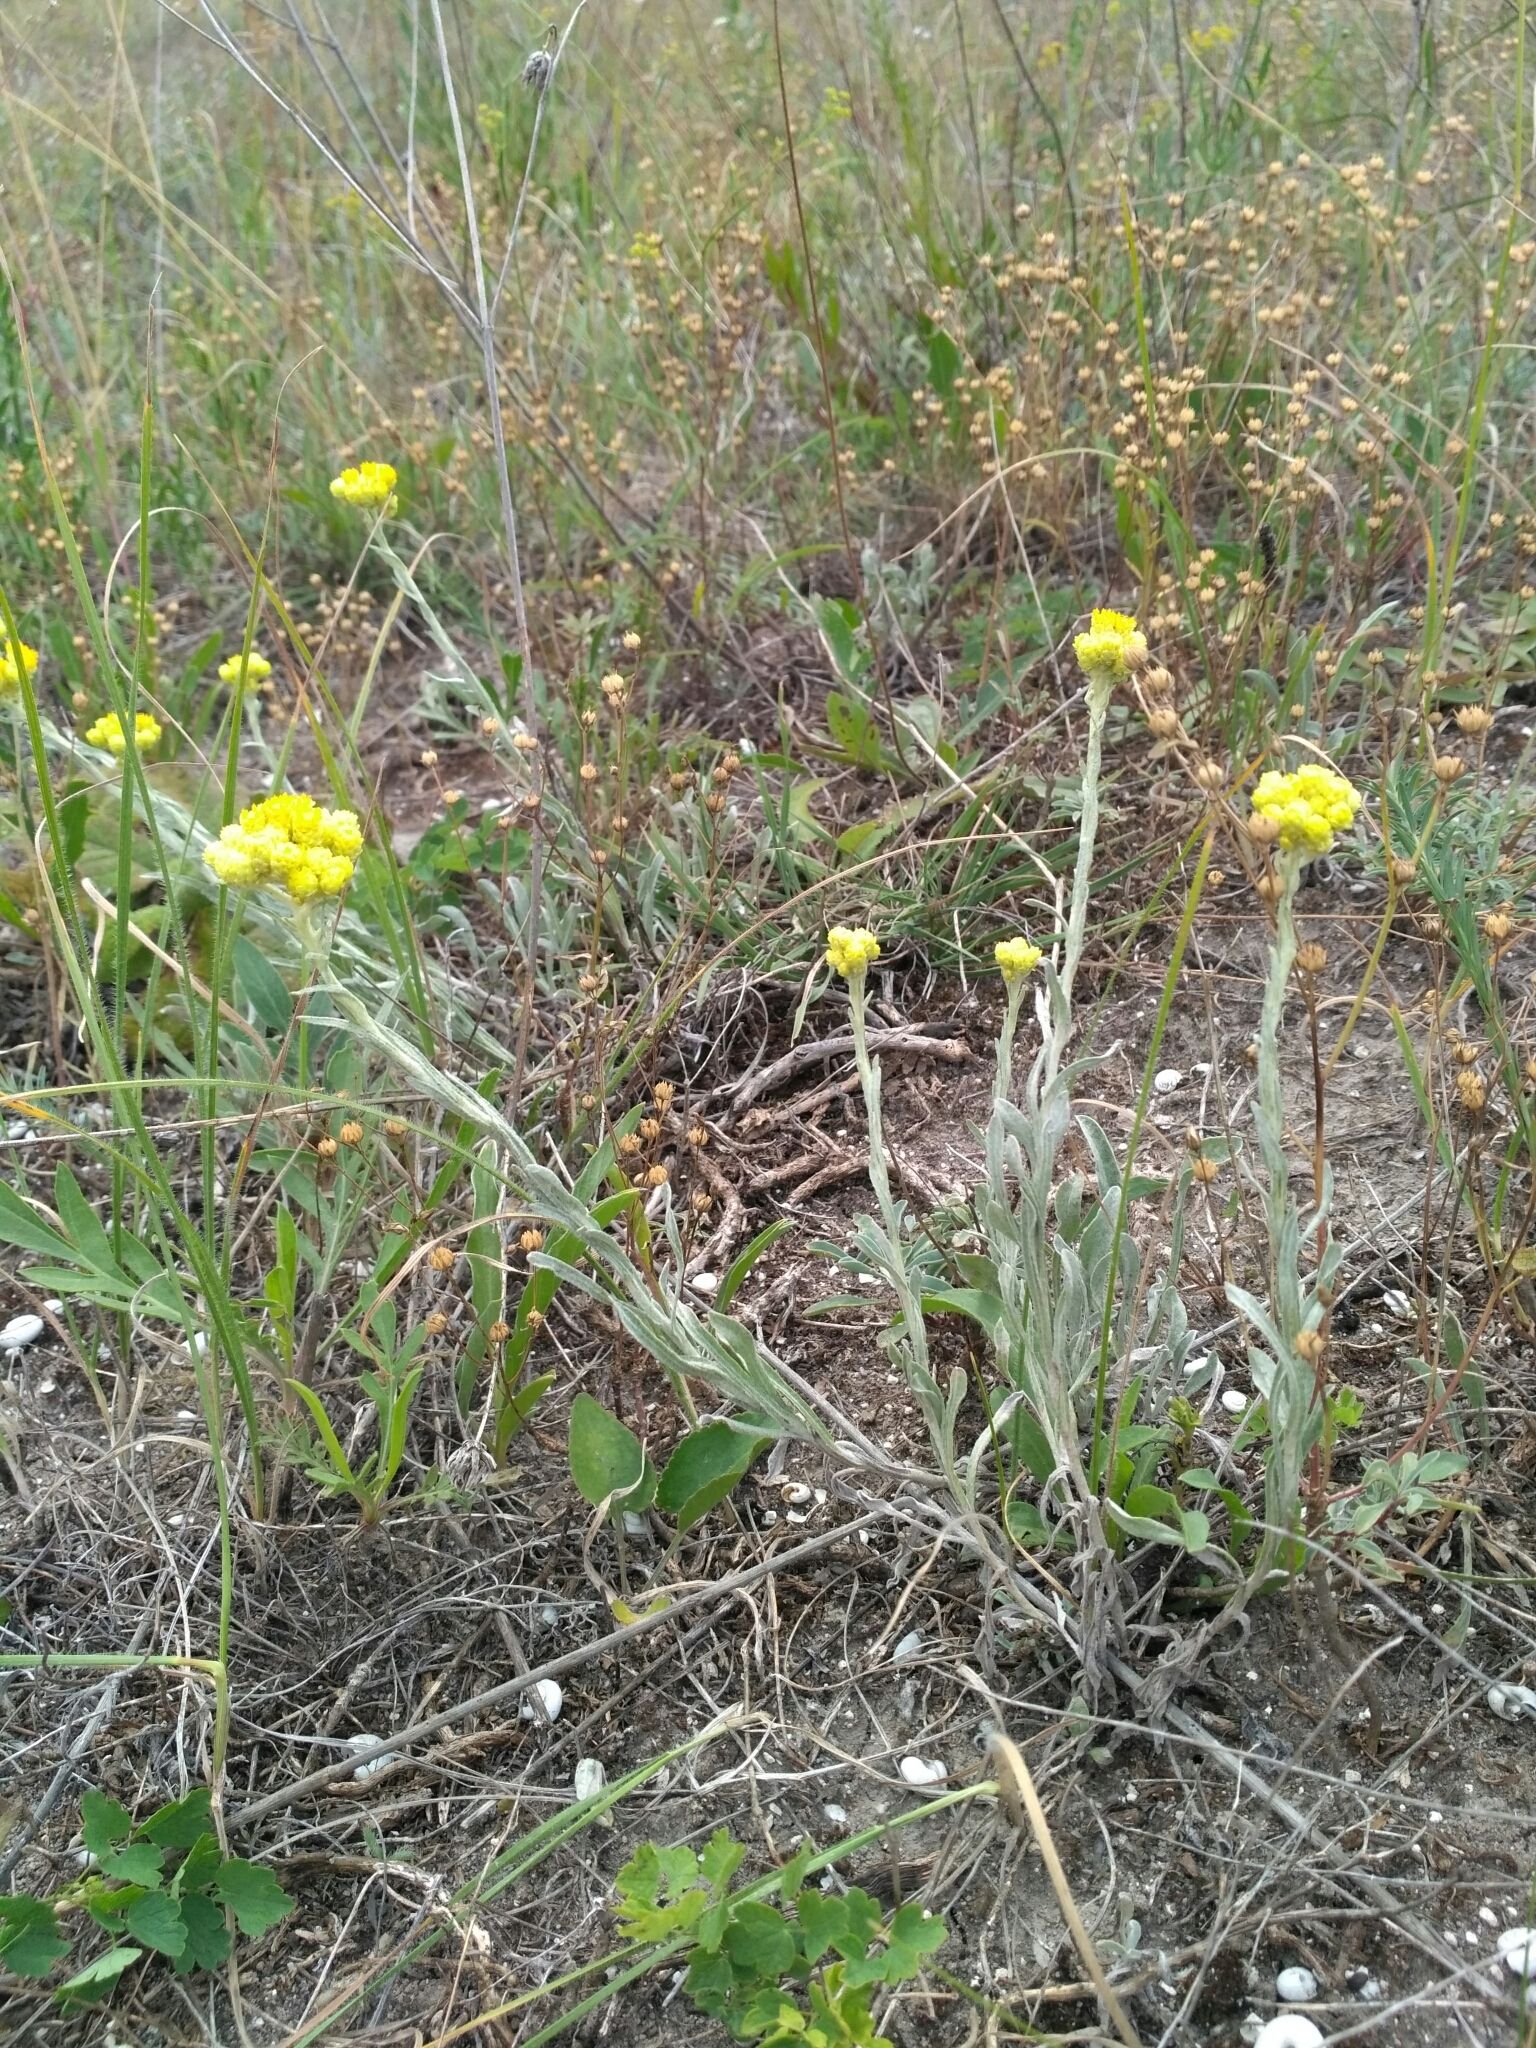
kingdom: Plantae
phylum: Tracheophyta
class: Magnoliopsida
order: Asterales
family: Asteraceae
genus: Helichrysum
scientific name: Helichrysum arenarium
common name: Strawflower
